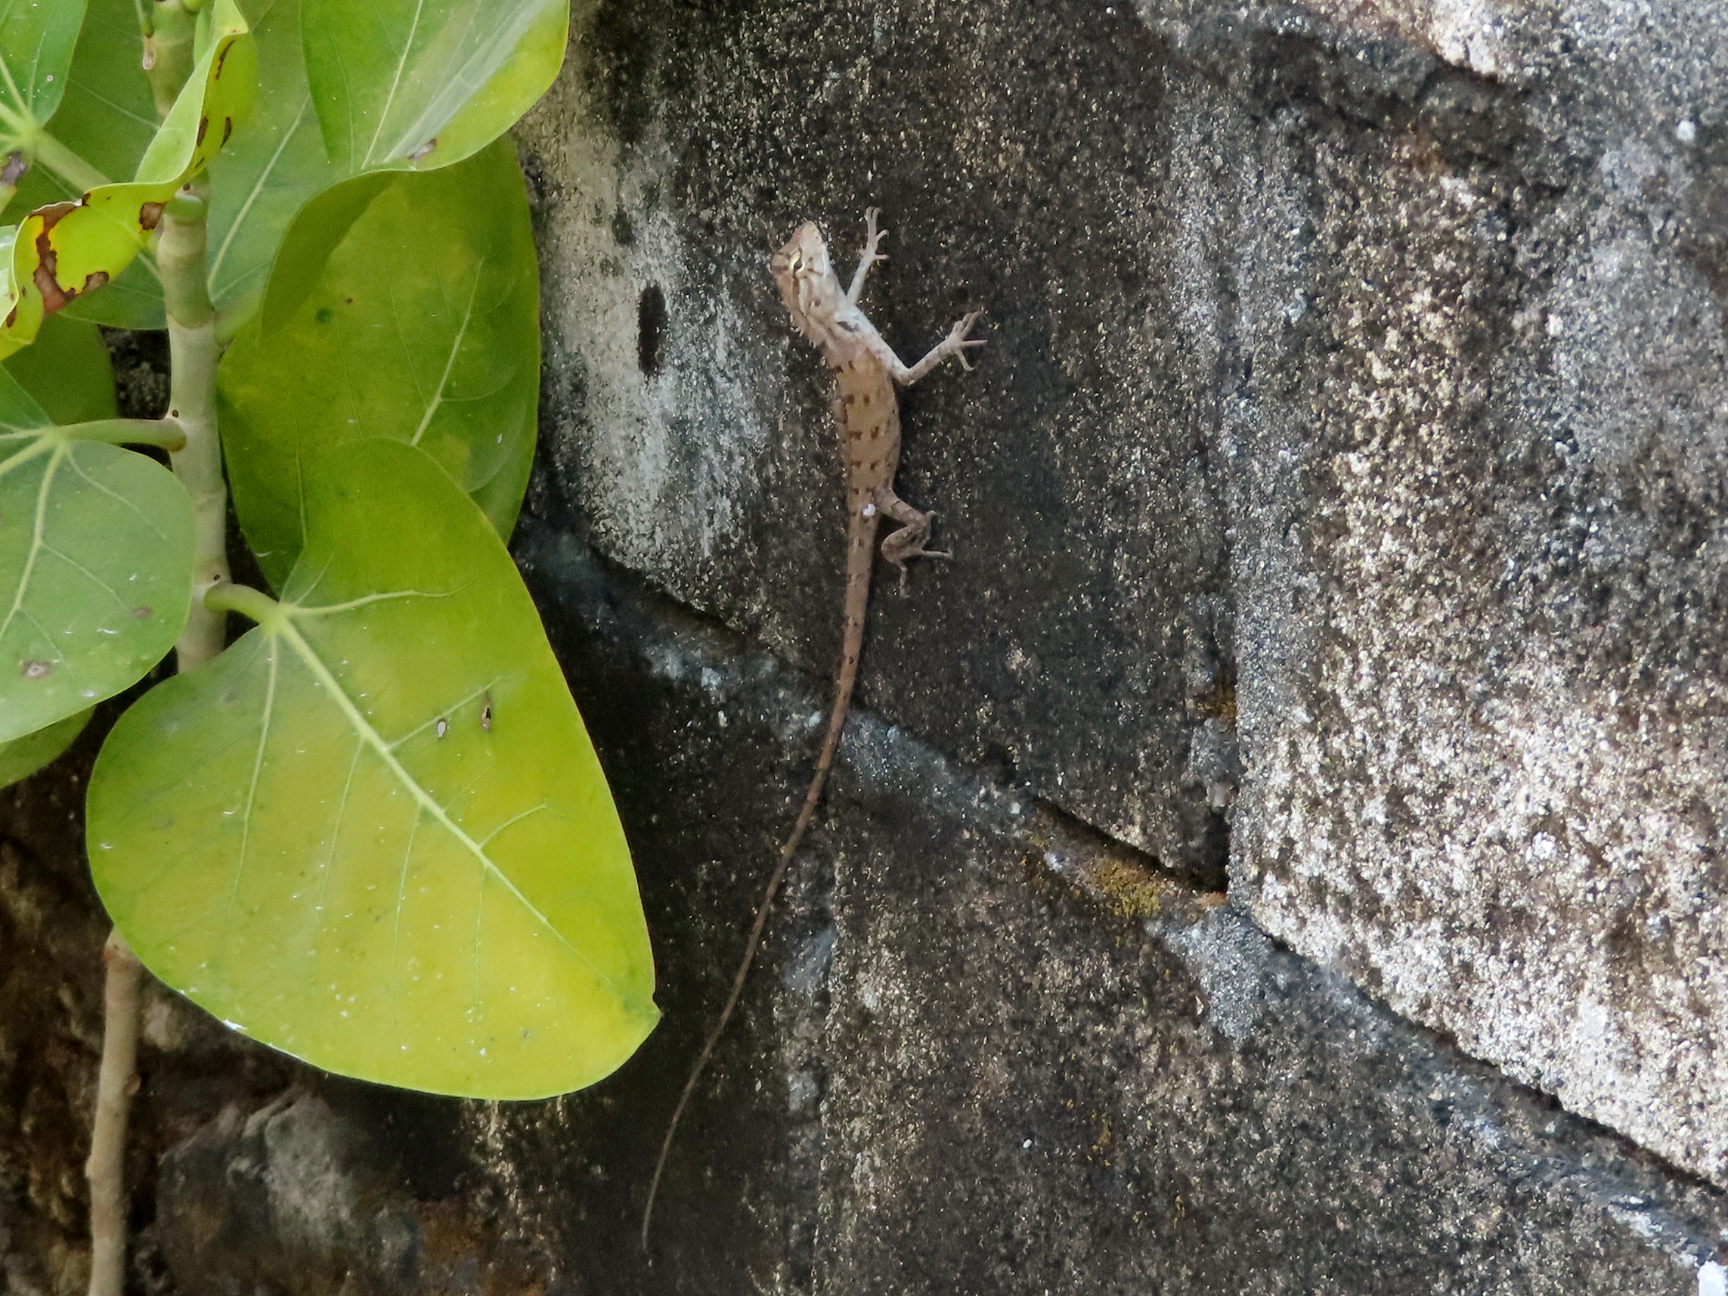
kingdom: Animalia
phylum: Chordata
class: Squamata
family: Agamidae
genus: Calotes
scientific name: Calotes versicolor
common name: Oriental garden lizard
